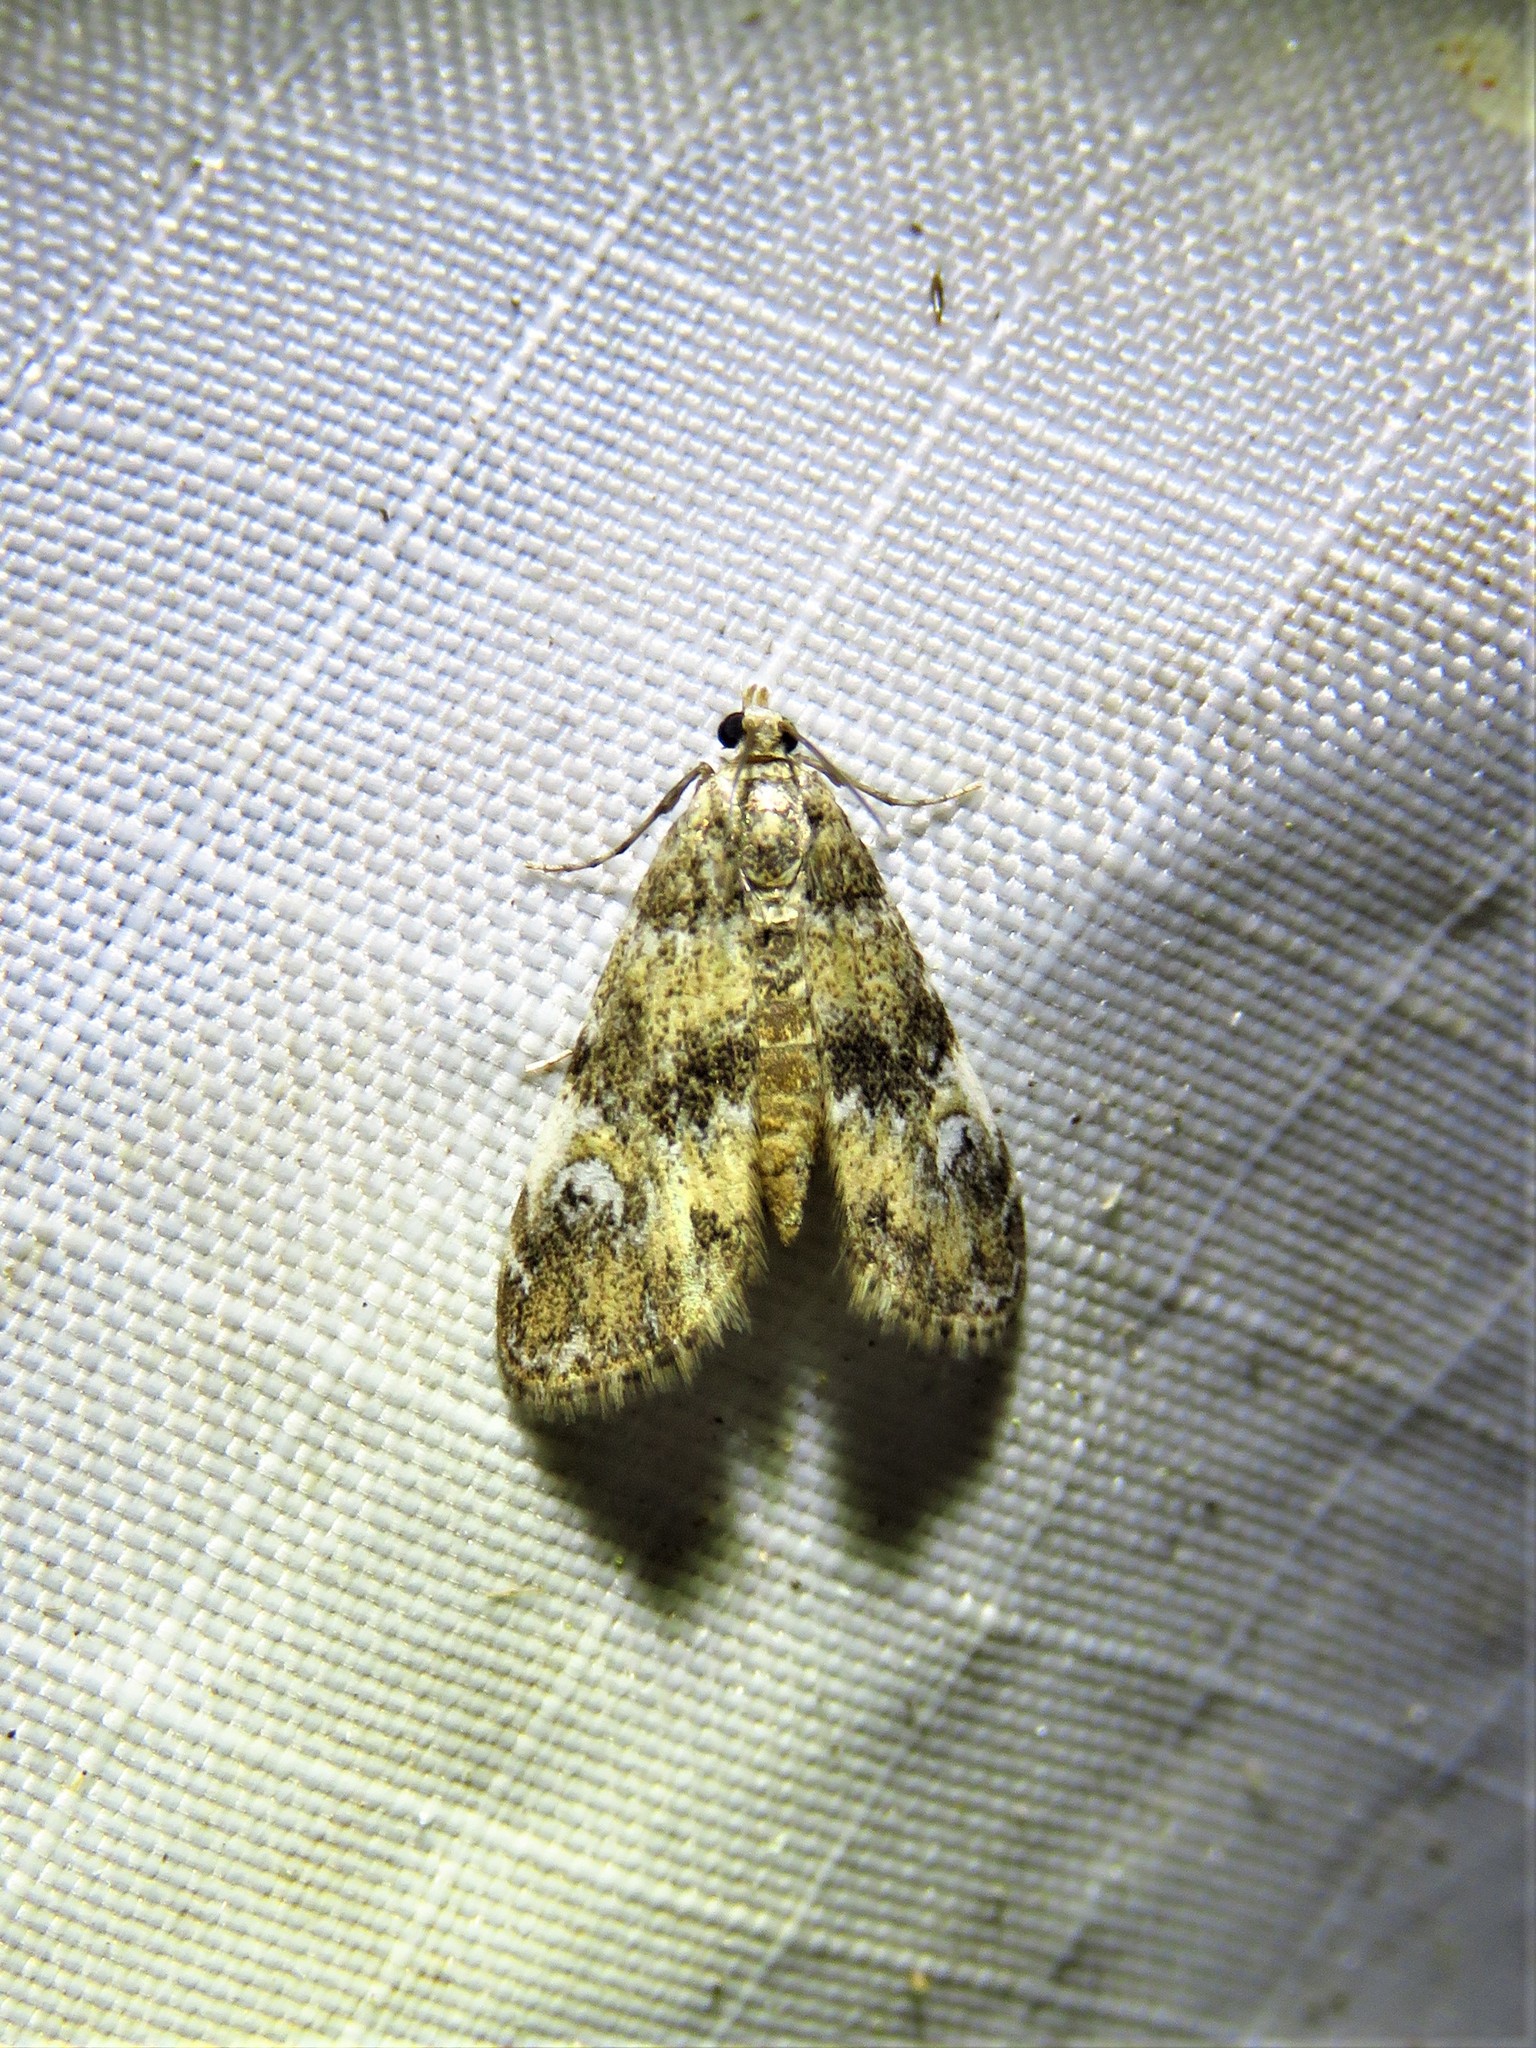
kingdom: Animalia
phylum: Arthropoda
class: Insecta
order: Lepidoptera
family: Crambidae
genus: Elophila
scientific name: Elophila obliteralis
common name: Waterlily leafcutter moth
